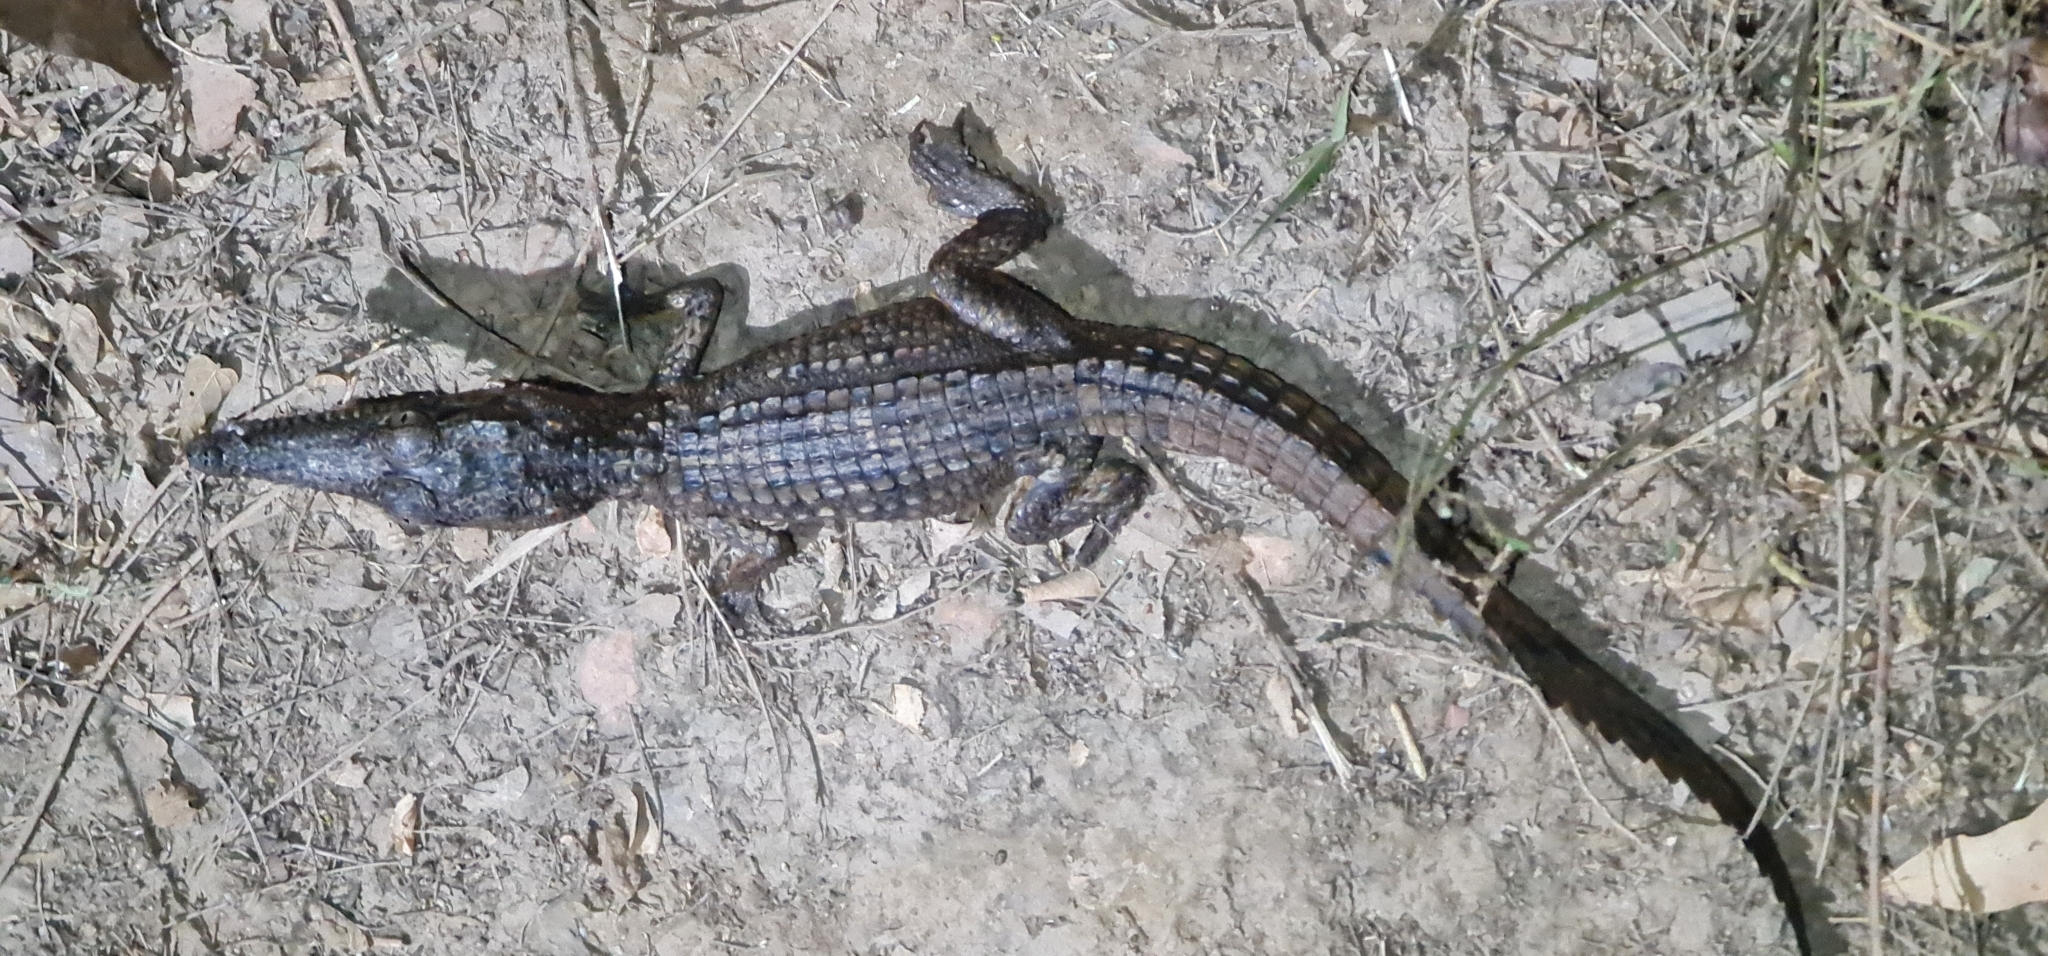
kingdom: Animalia
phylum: Chordata
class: Crocodylia
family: Crocodylidae
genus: Crocodylus
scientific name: Crocodylus johnsoni
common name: Freshwater crocodile
